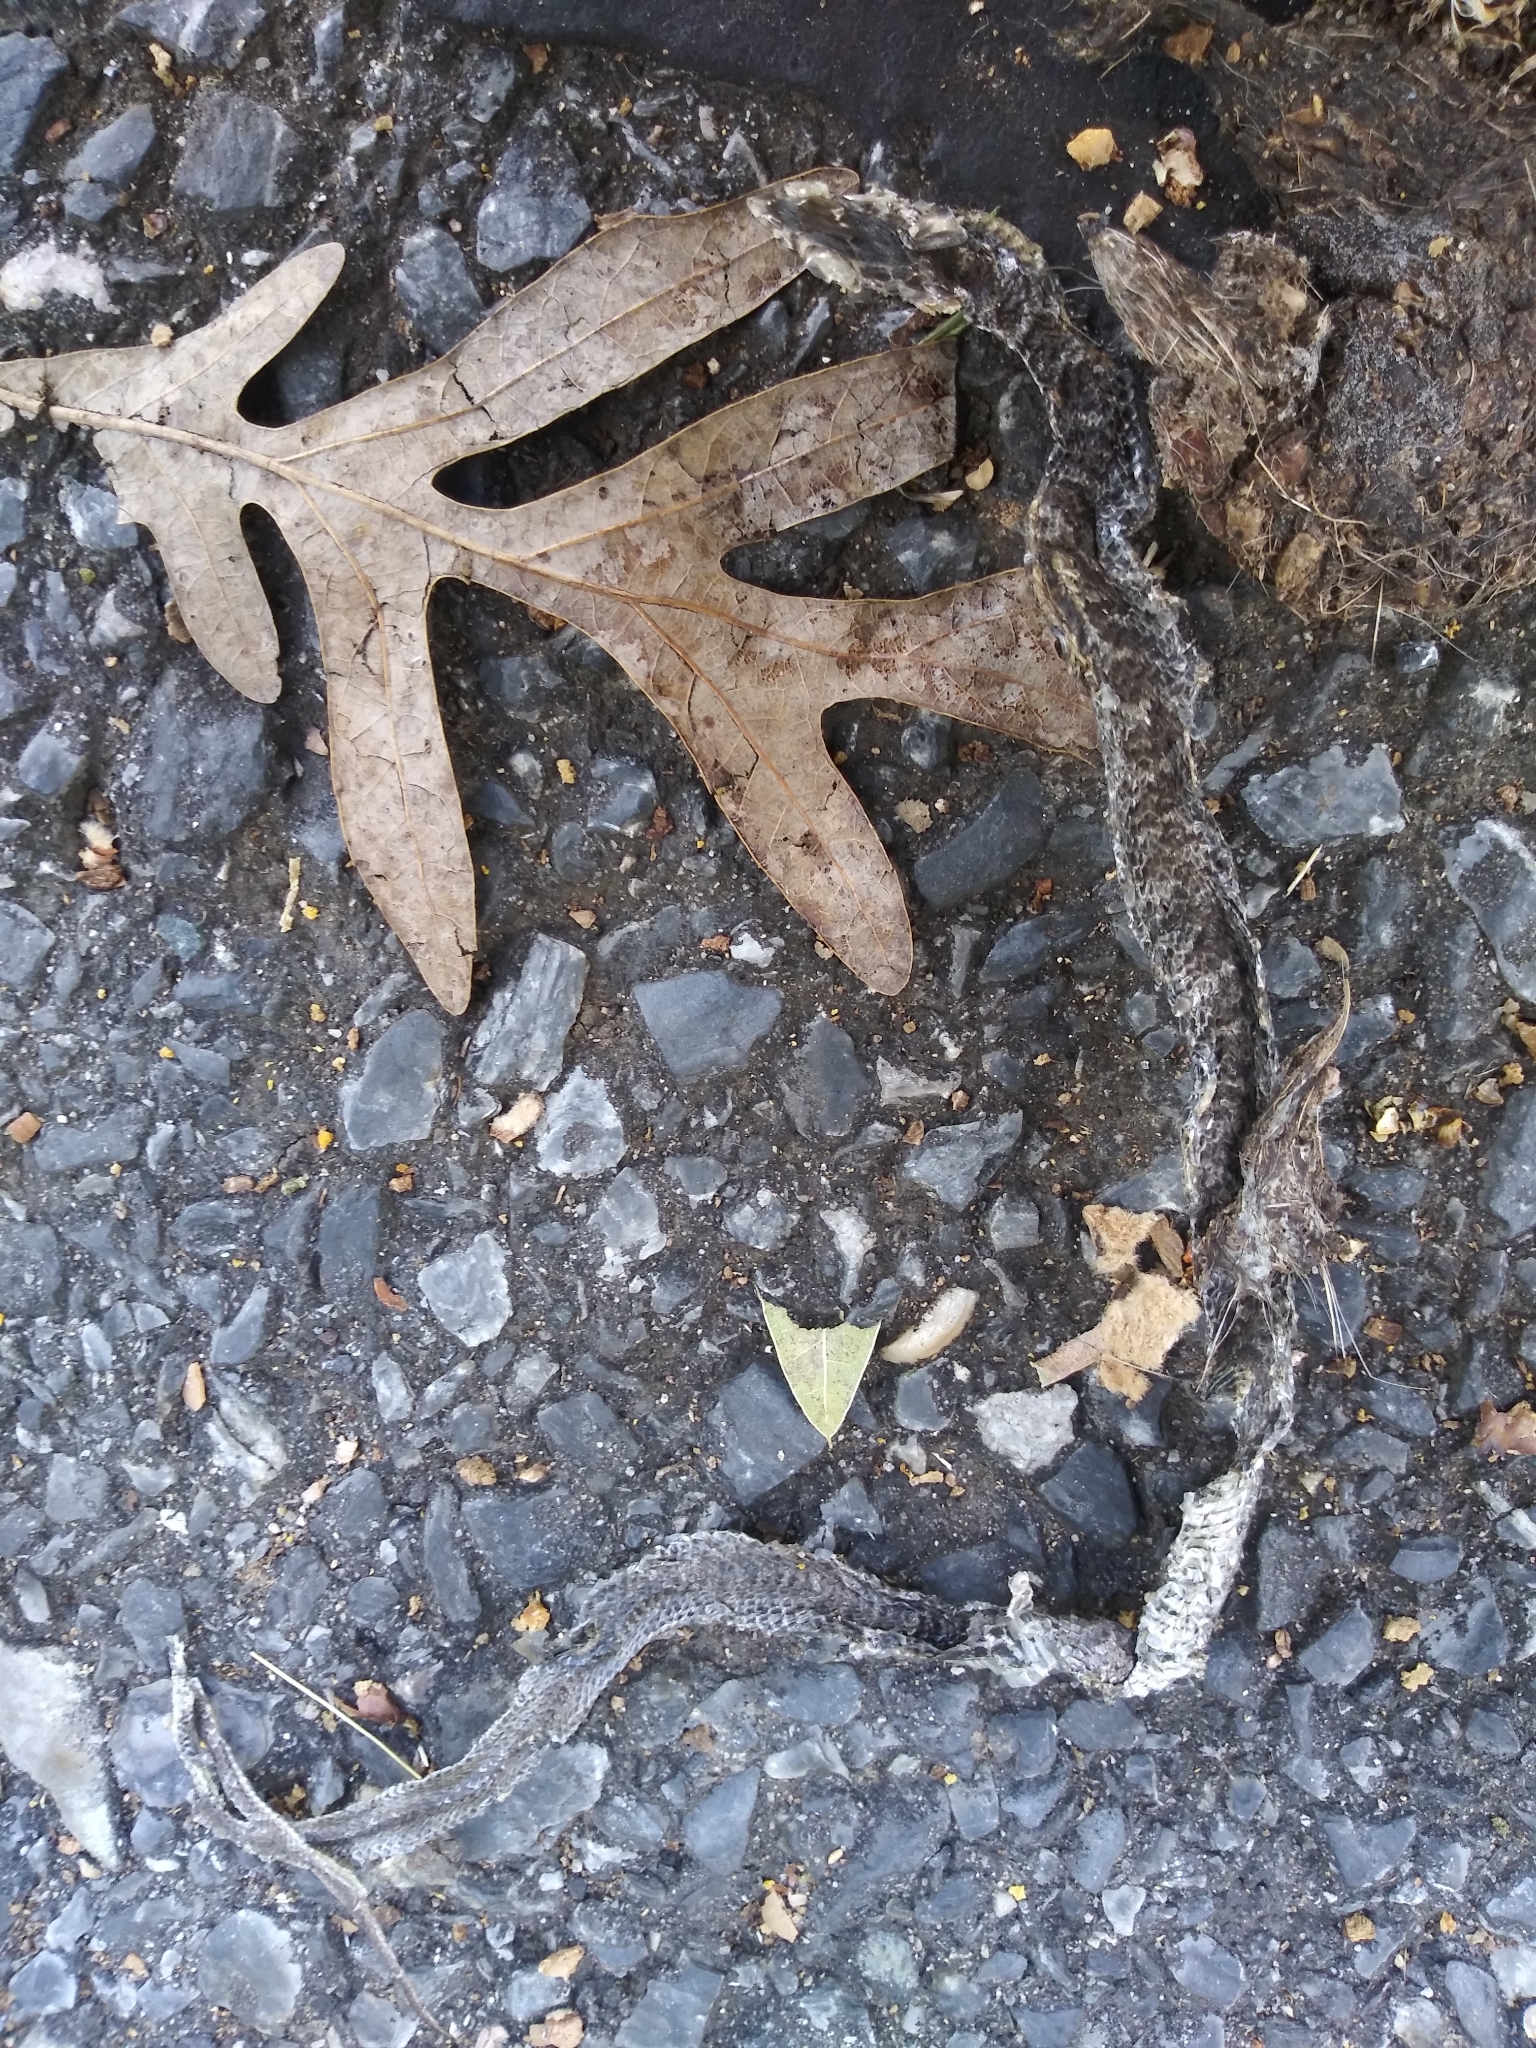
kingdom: Animalia
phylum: Chordata
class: Squamata
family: Colubridae
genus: Coluber
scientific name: Coluber constrictor
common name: Eastern racer
